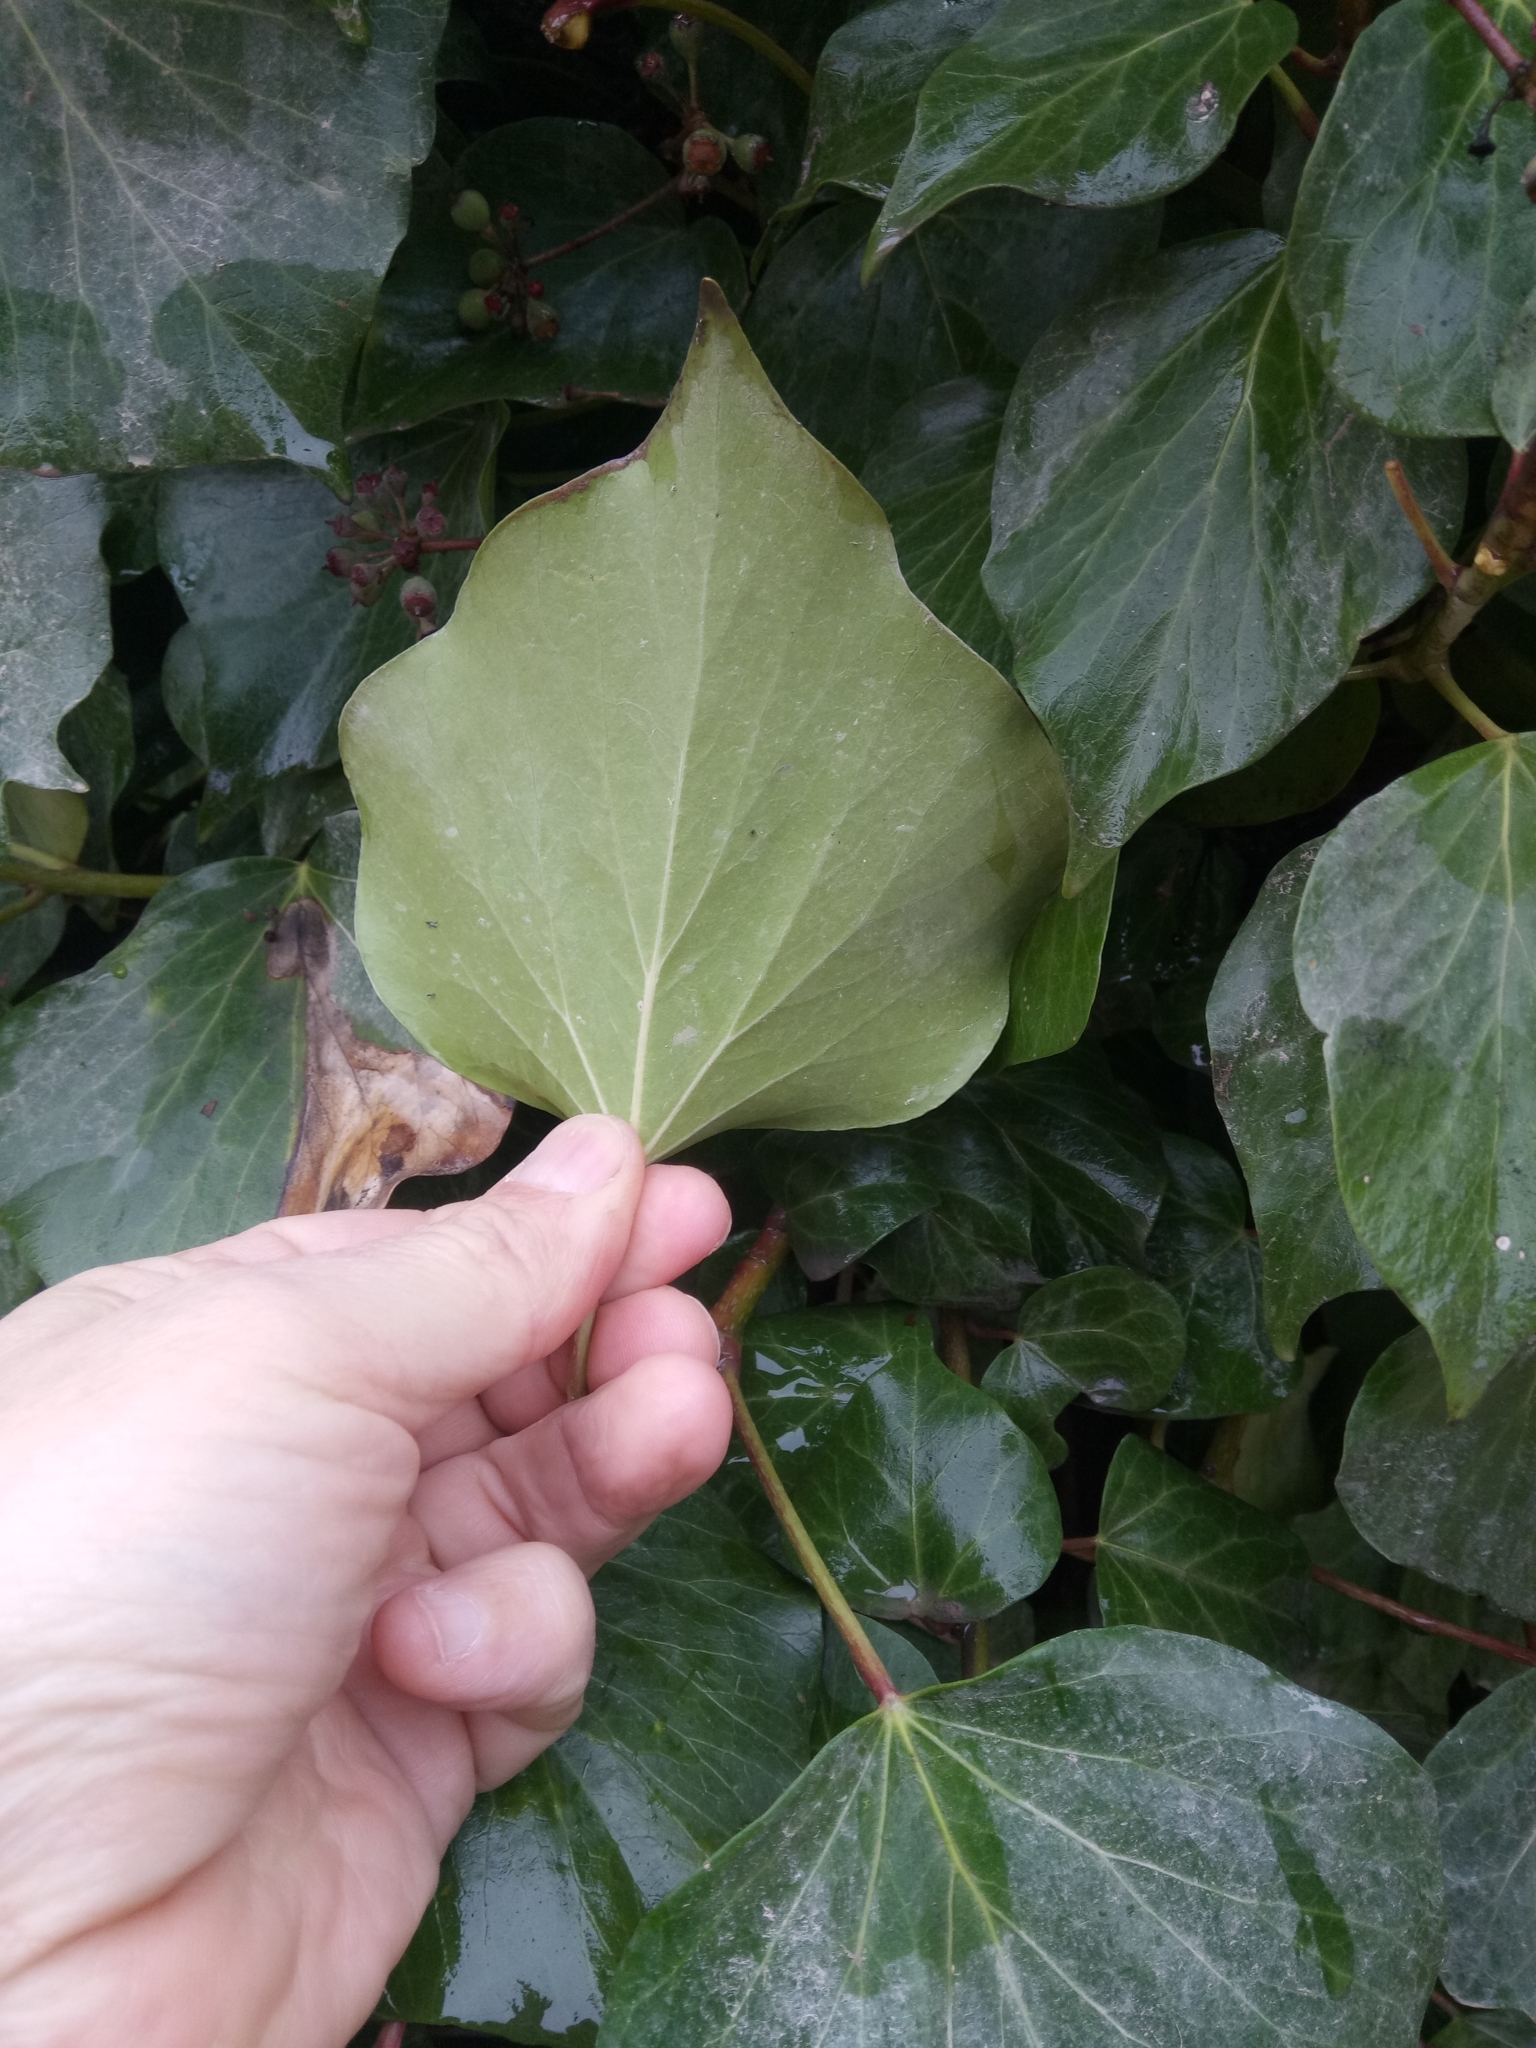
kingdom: Plantae
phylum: Tracheophyta
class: Magnoliopsida
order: Apiales
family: Araliaceae
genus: Hedera
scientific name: Hedera algeriensis
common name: Algerian ivy
